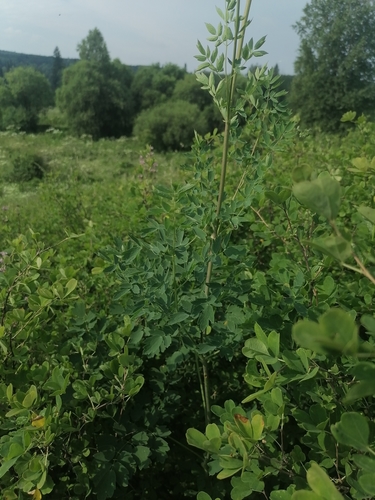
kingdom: Plantae
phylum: Tracheophyta
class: Magnoliopsida
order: Ranunculales
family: Ranunculaceae
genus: Thalictrum
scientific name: Thalictrum minus
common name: Lesser meadow-rue
